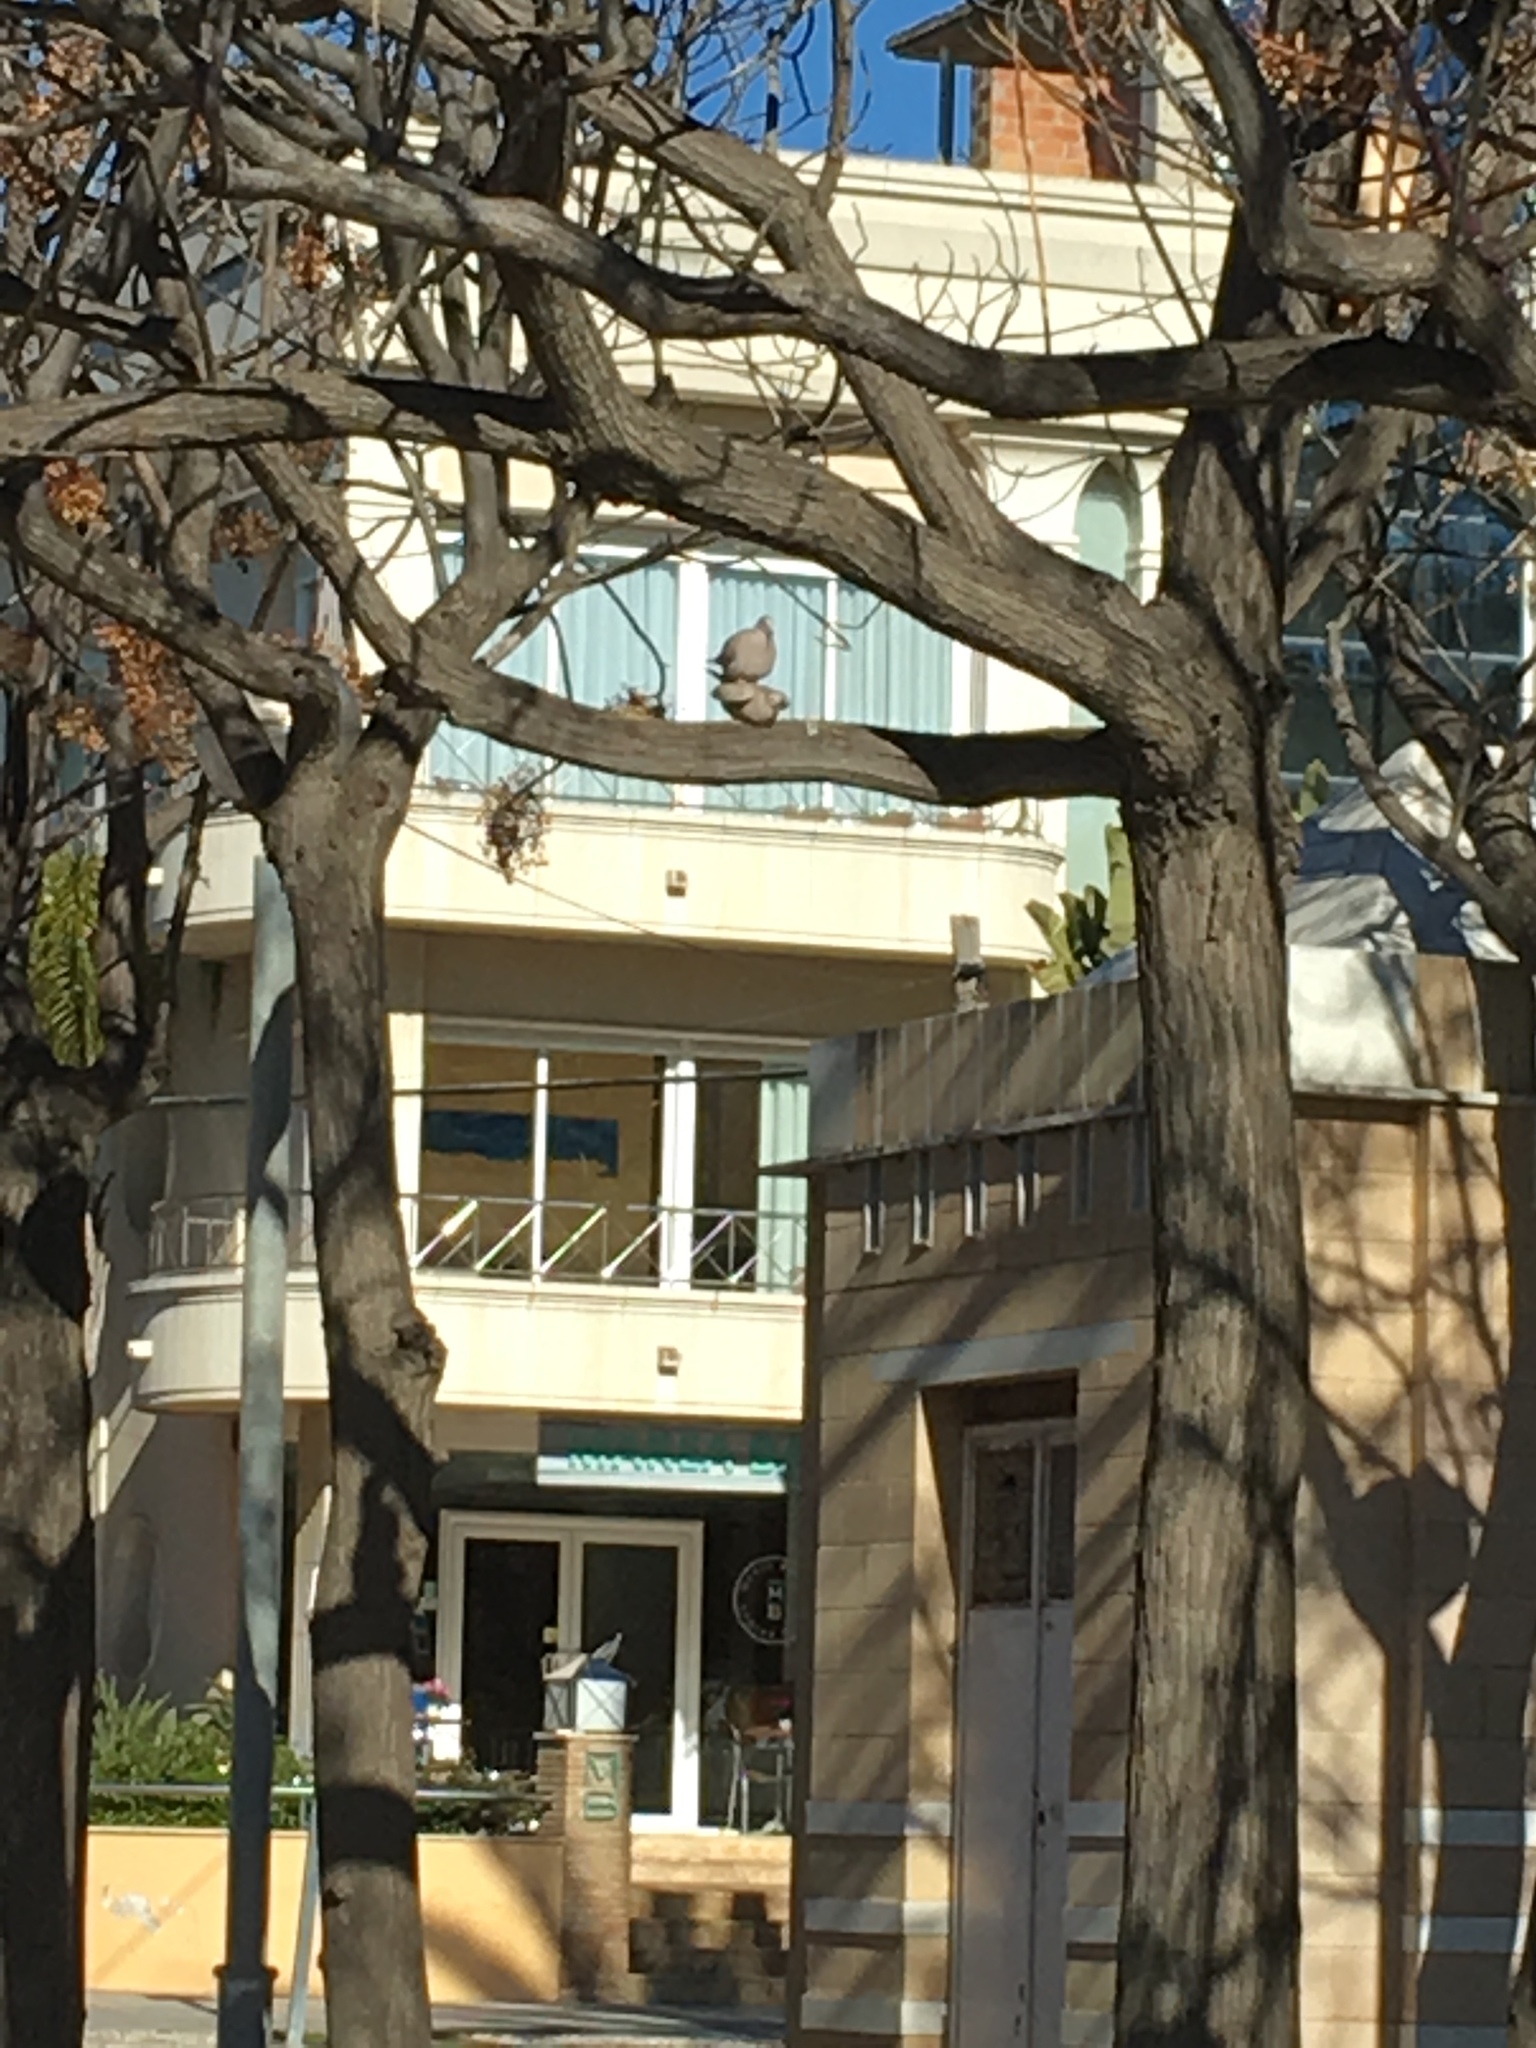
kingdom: Animalia
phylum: Chordata
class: Aves
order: Columbiformes
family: Columbidae
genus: Streptopelia
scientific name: Streptopelia decaocto
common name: Eurasian collared dove
